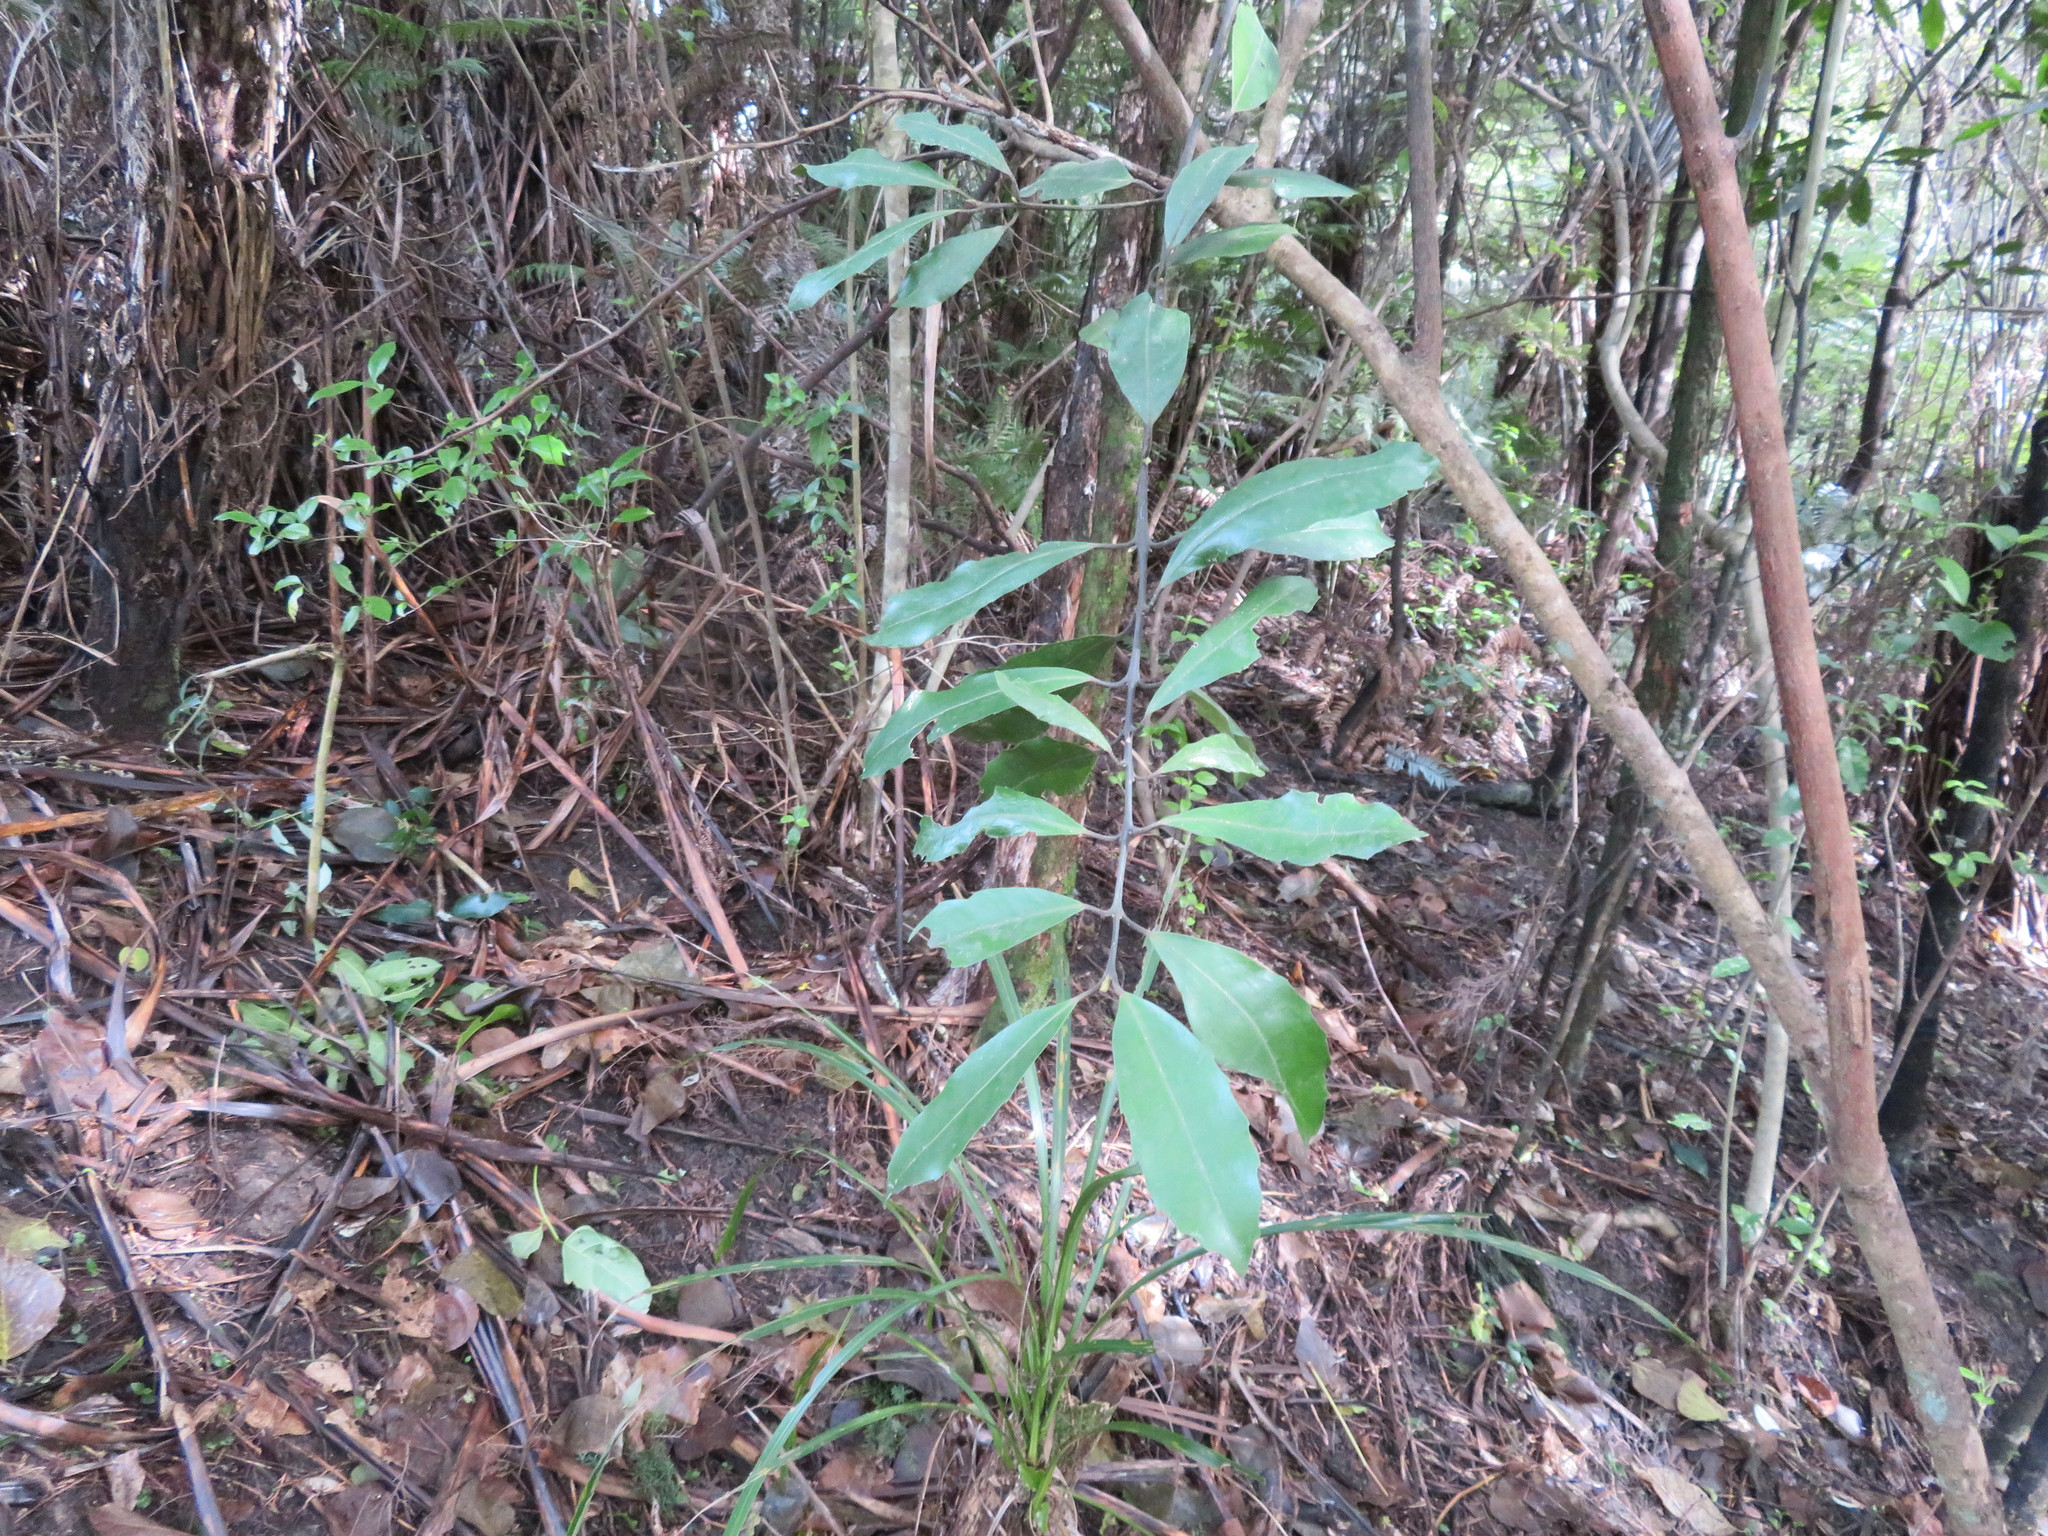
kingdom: Plantae
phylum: Tracheophyta
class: Magnoliopsida
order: Laurales
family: Monimiaceae
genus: Hedycarya
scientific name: Hedycarya arborea
